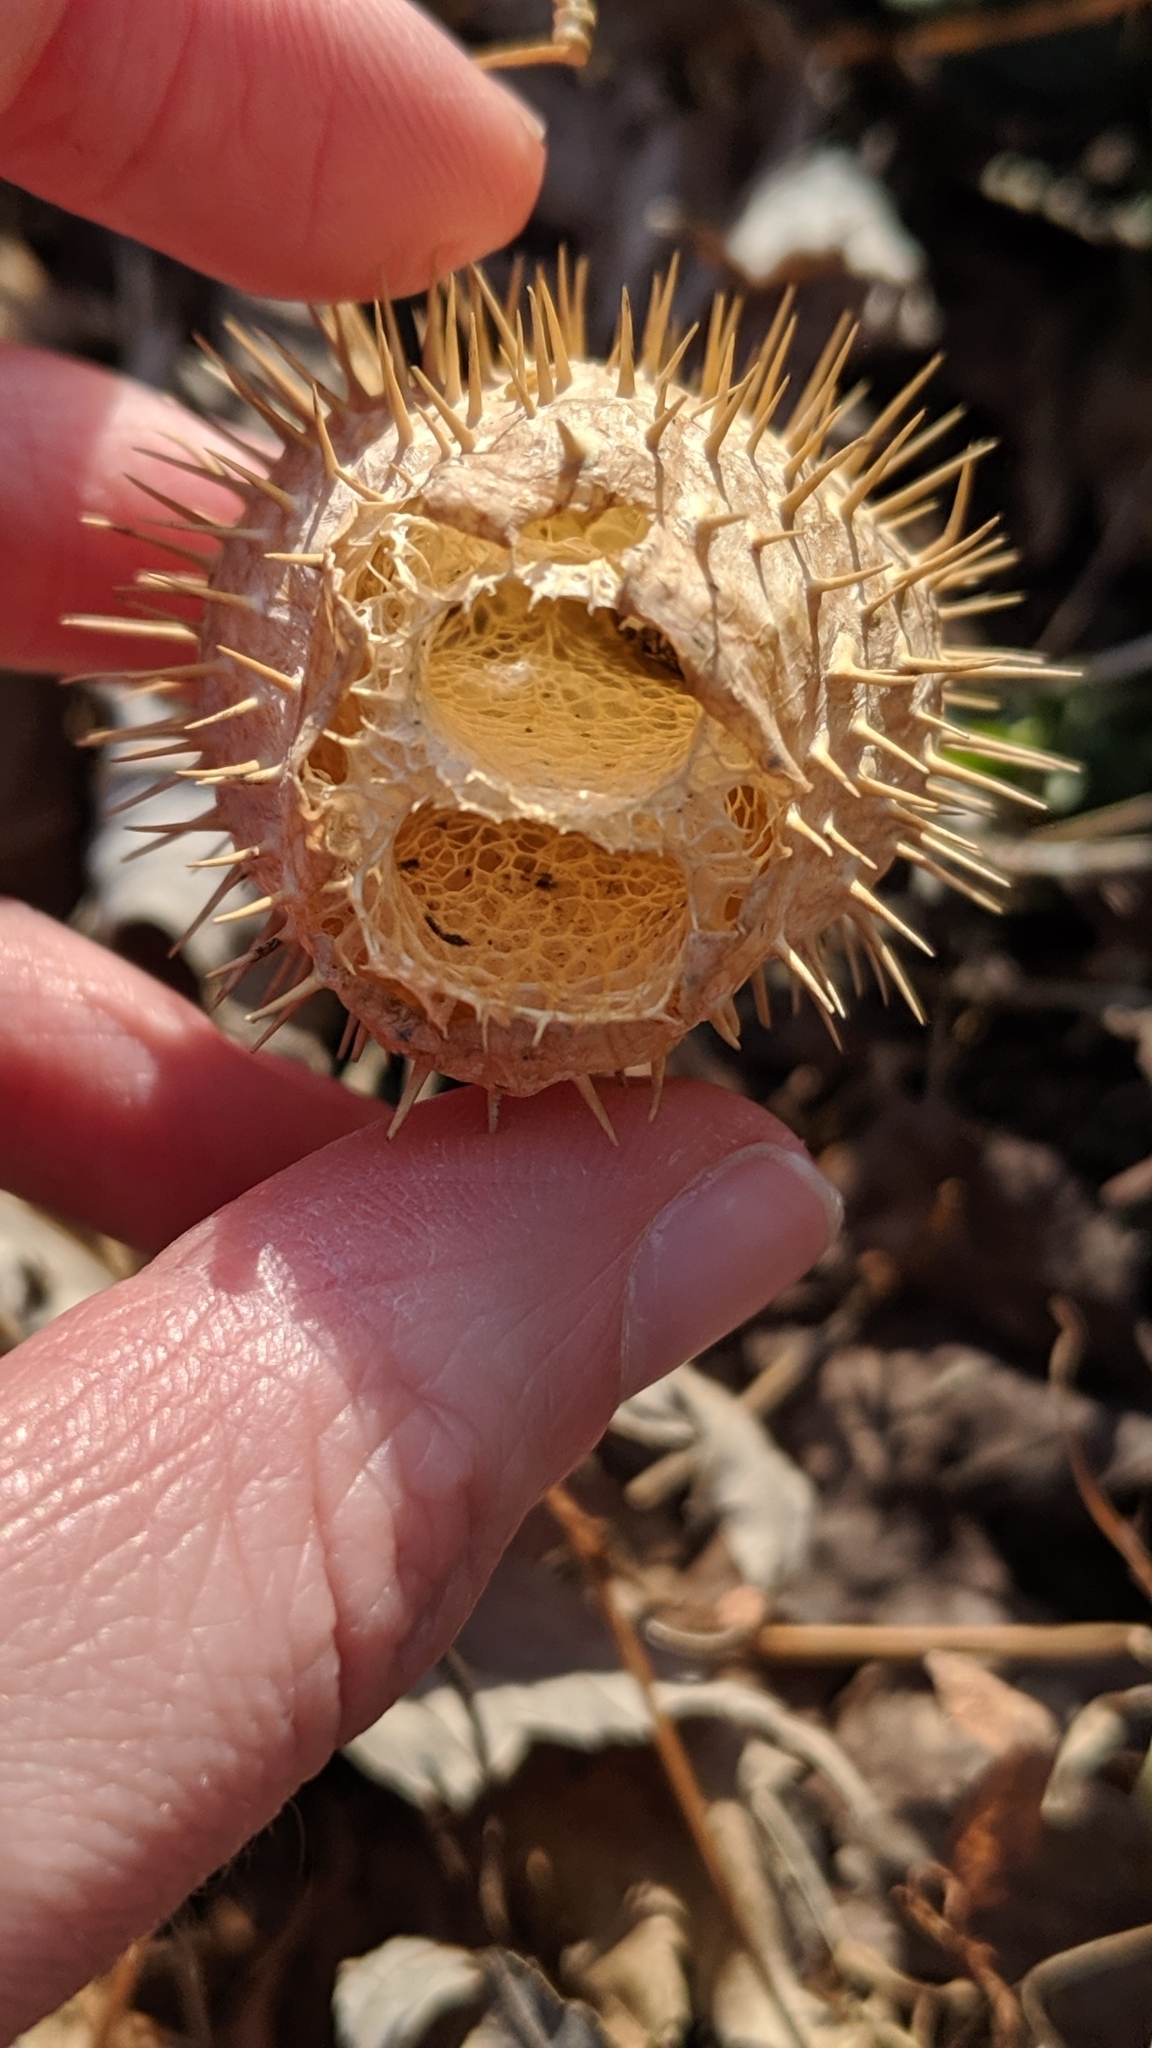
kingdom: Plantae
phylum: Tracheophyta
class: Magnoliopsida
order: Cucurbitales
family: Cucurbitaceae
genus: Echinocystis
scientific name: Echinocystis lobata
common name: Wild cucumber
